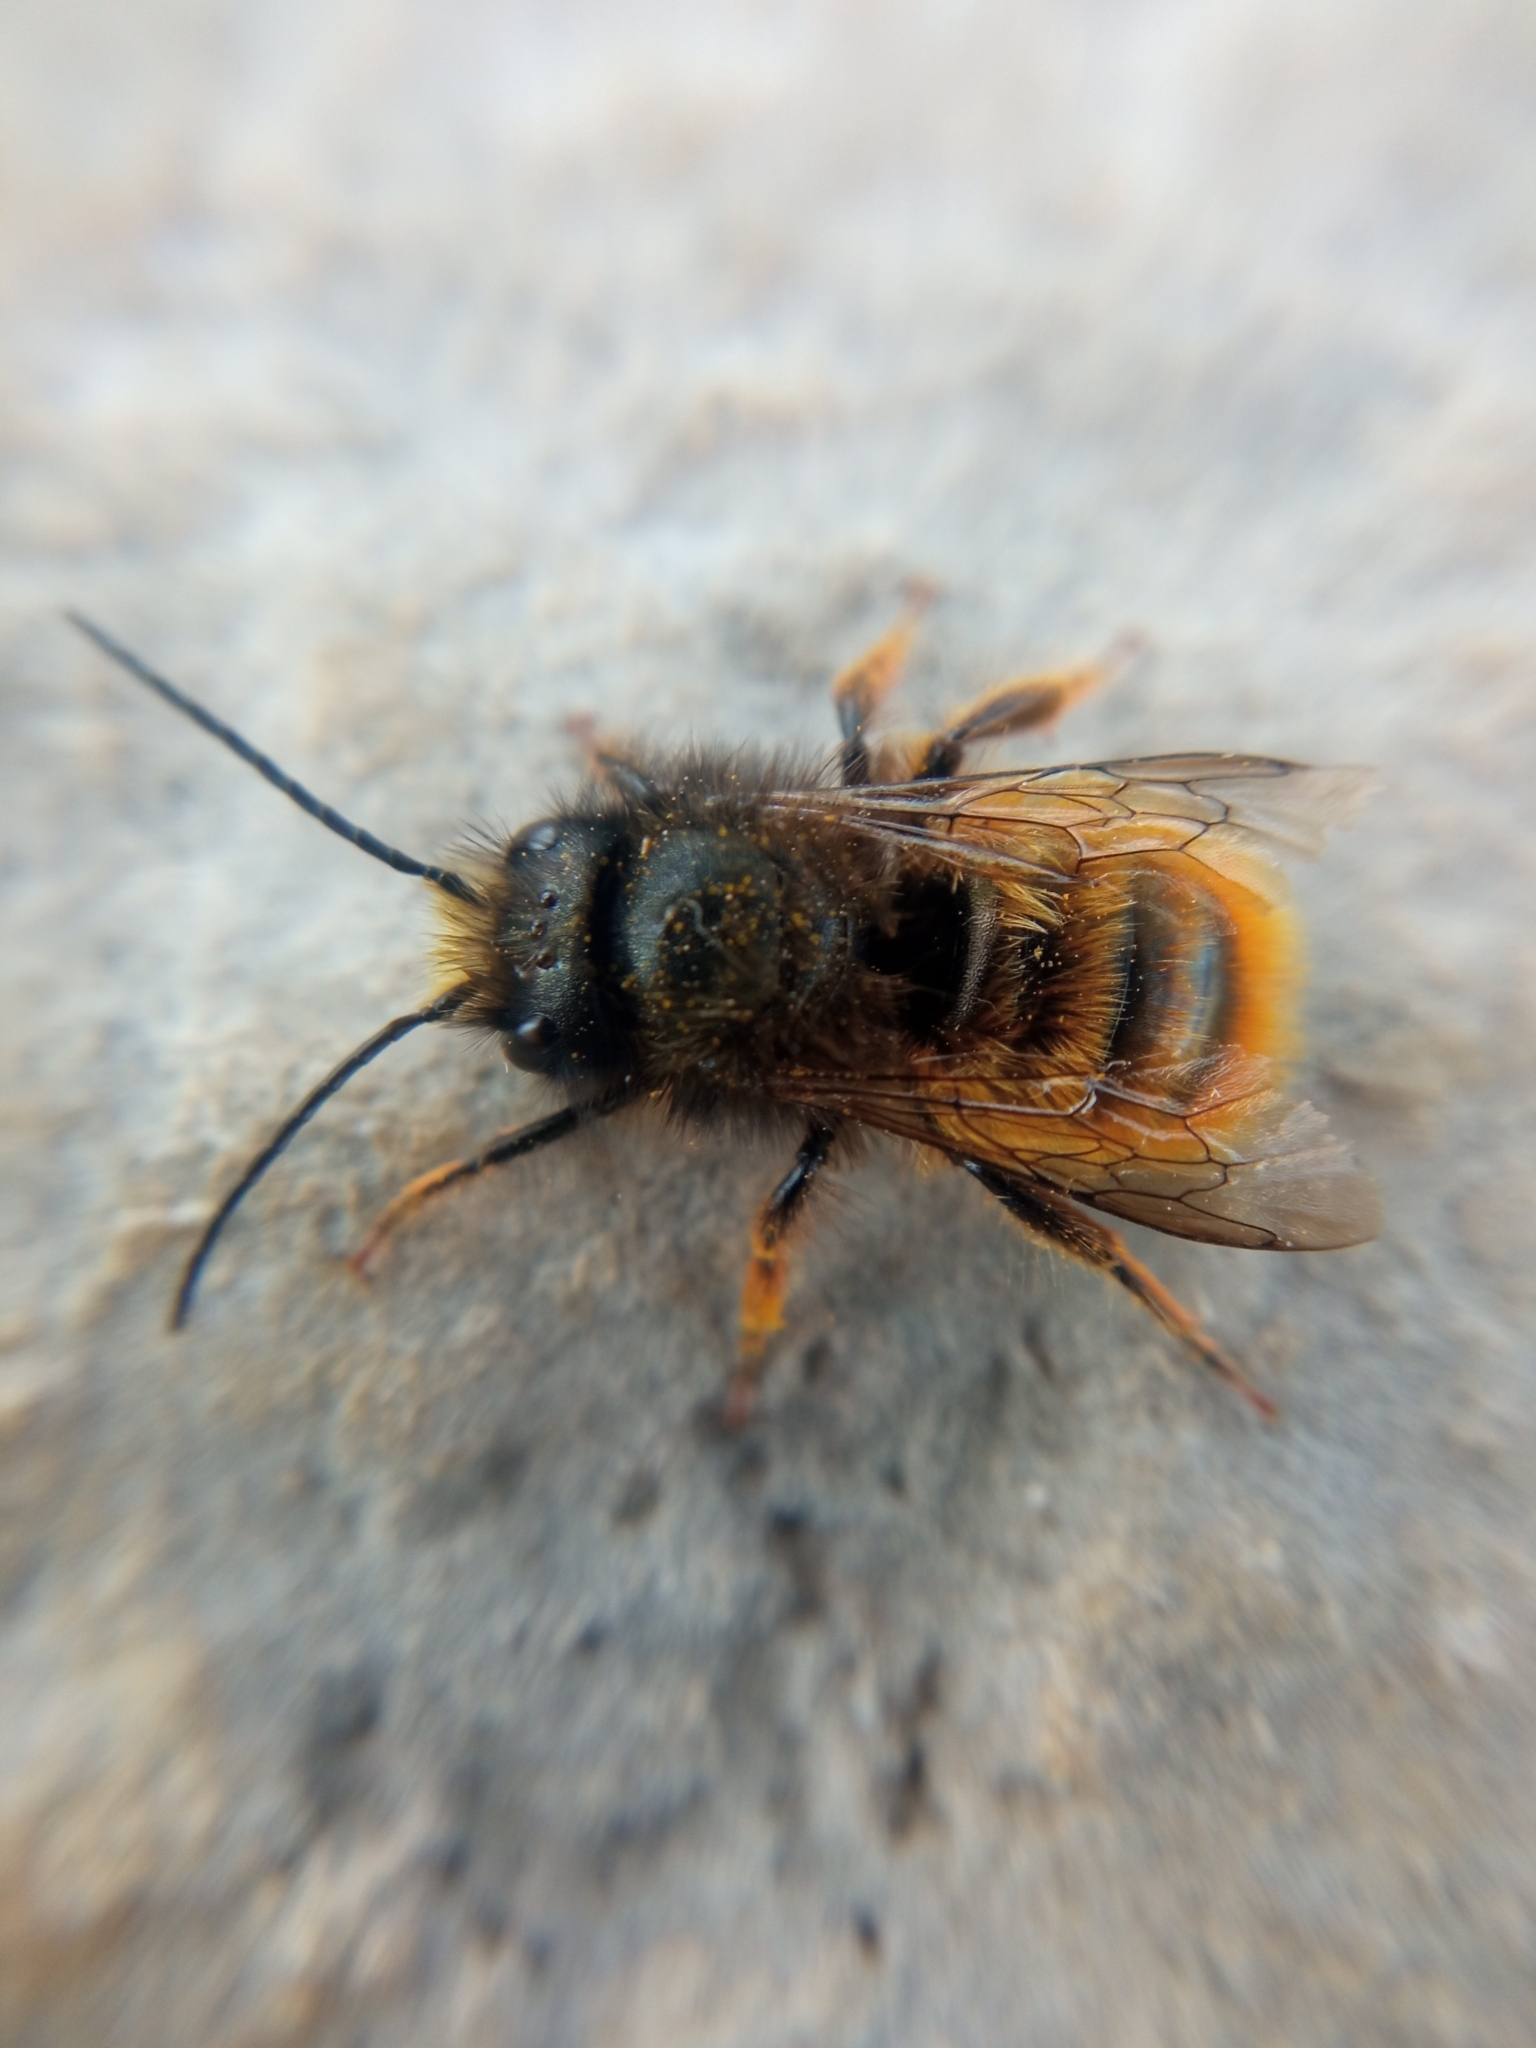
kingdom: Animalia
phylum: Arthropoda
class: Insecta
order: Hymenoptera
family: Megachilidae
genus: Osmia
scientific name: Osmia cornuta
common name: Mason bee
